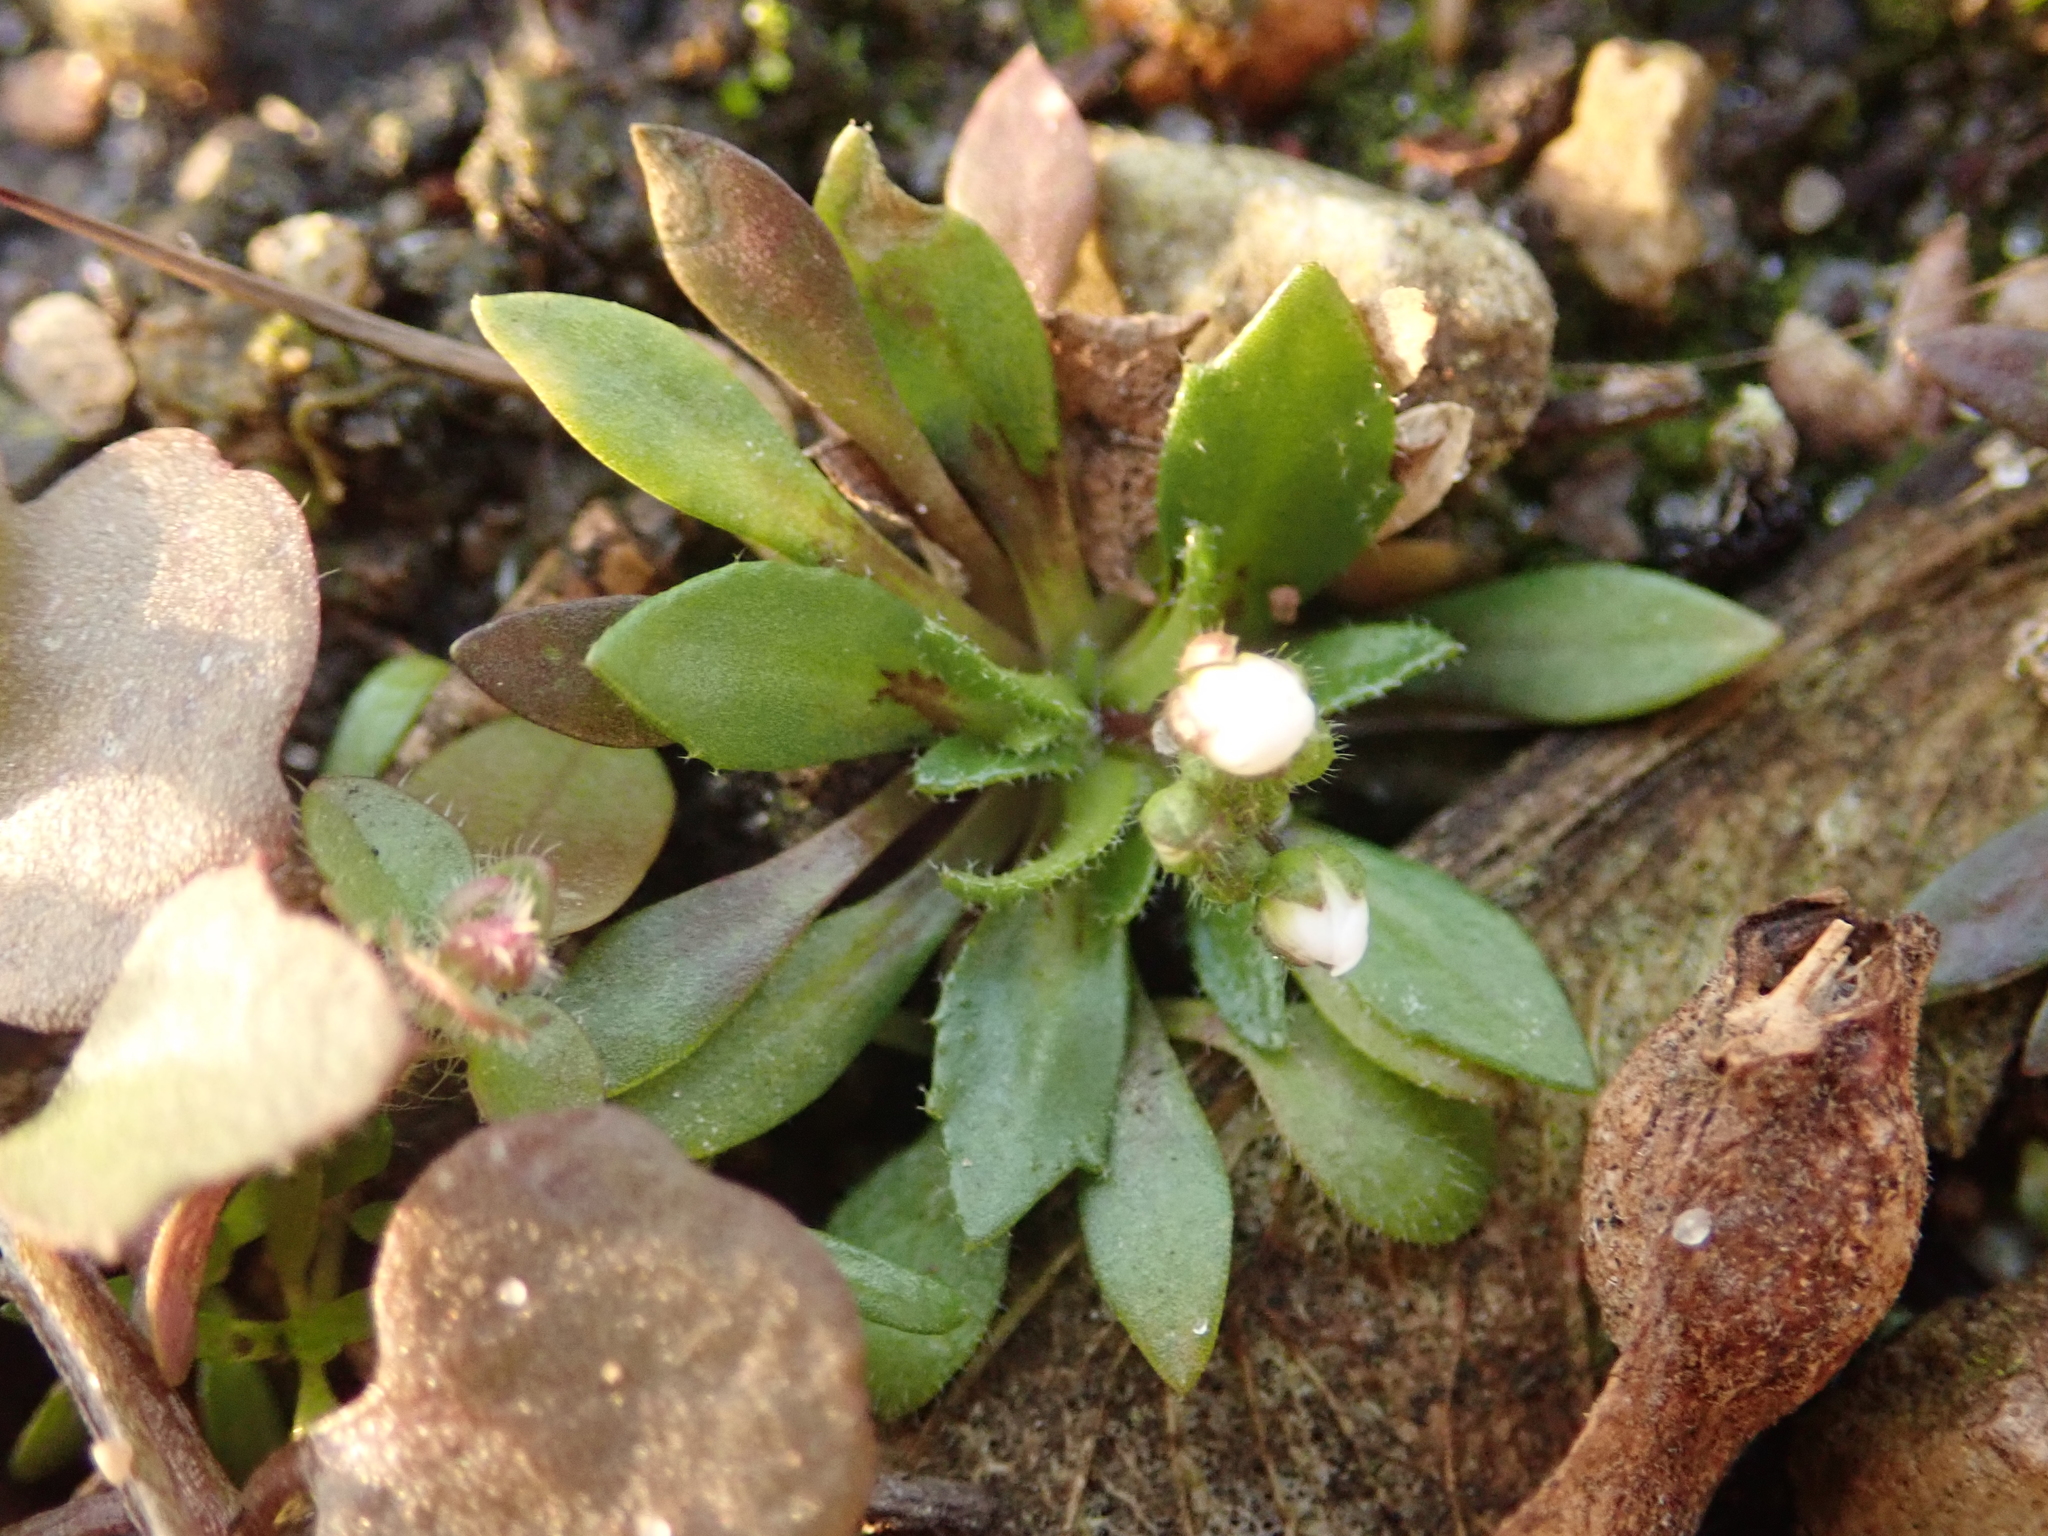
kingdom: Plantae
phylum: Tracheophyta
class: Magnoliopsida
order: Brassicales
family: Brassicaceae
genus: Draba
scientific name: Draba verna
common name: Spring draba
